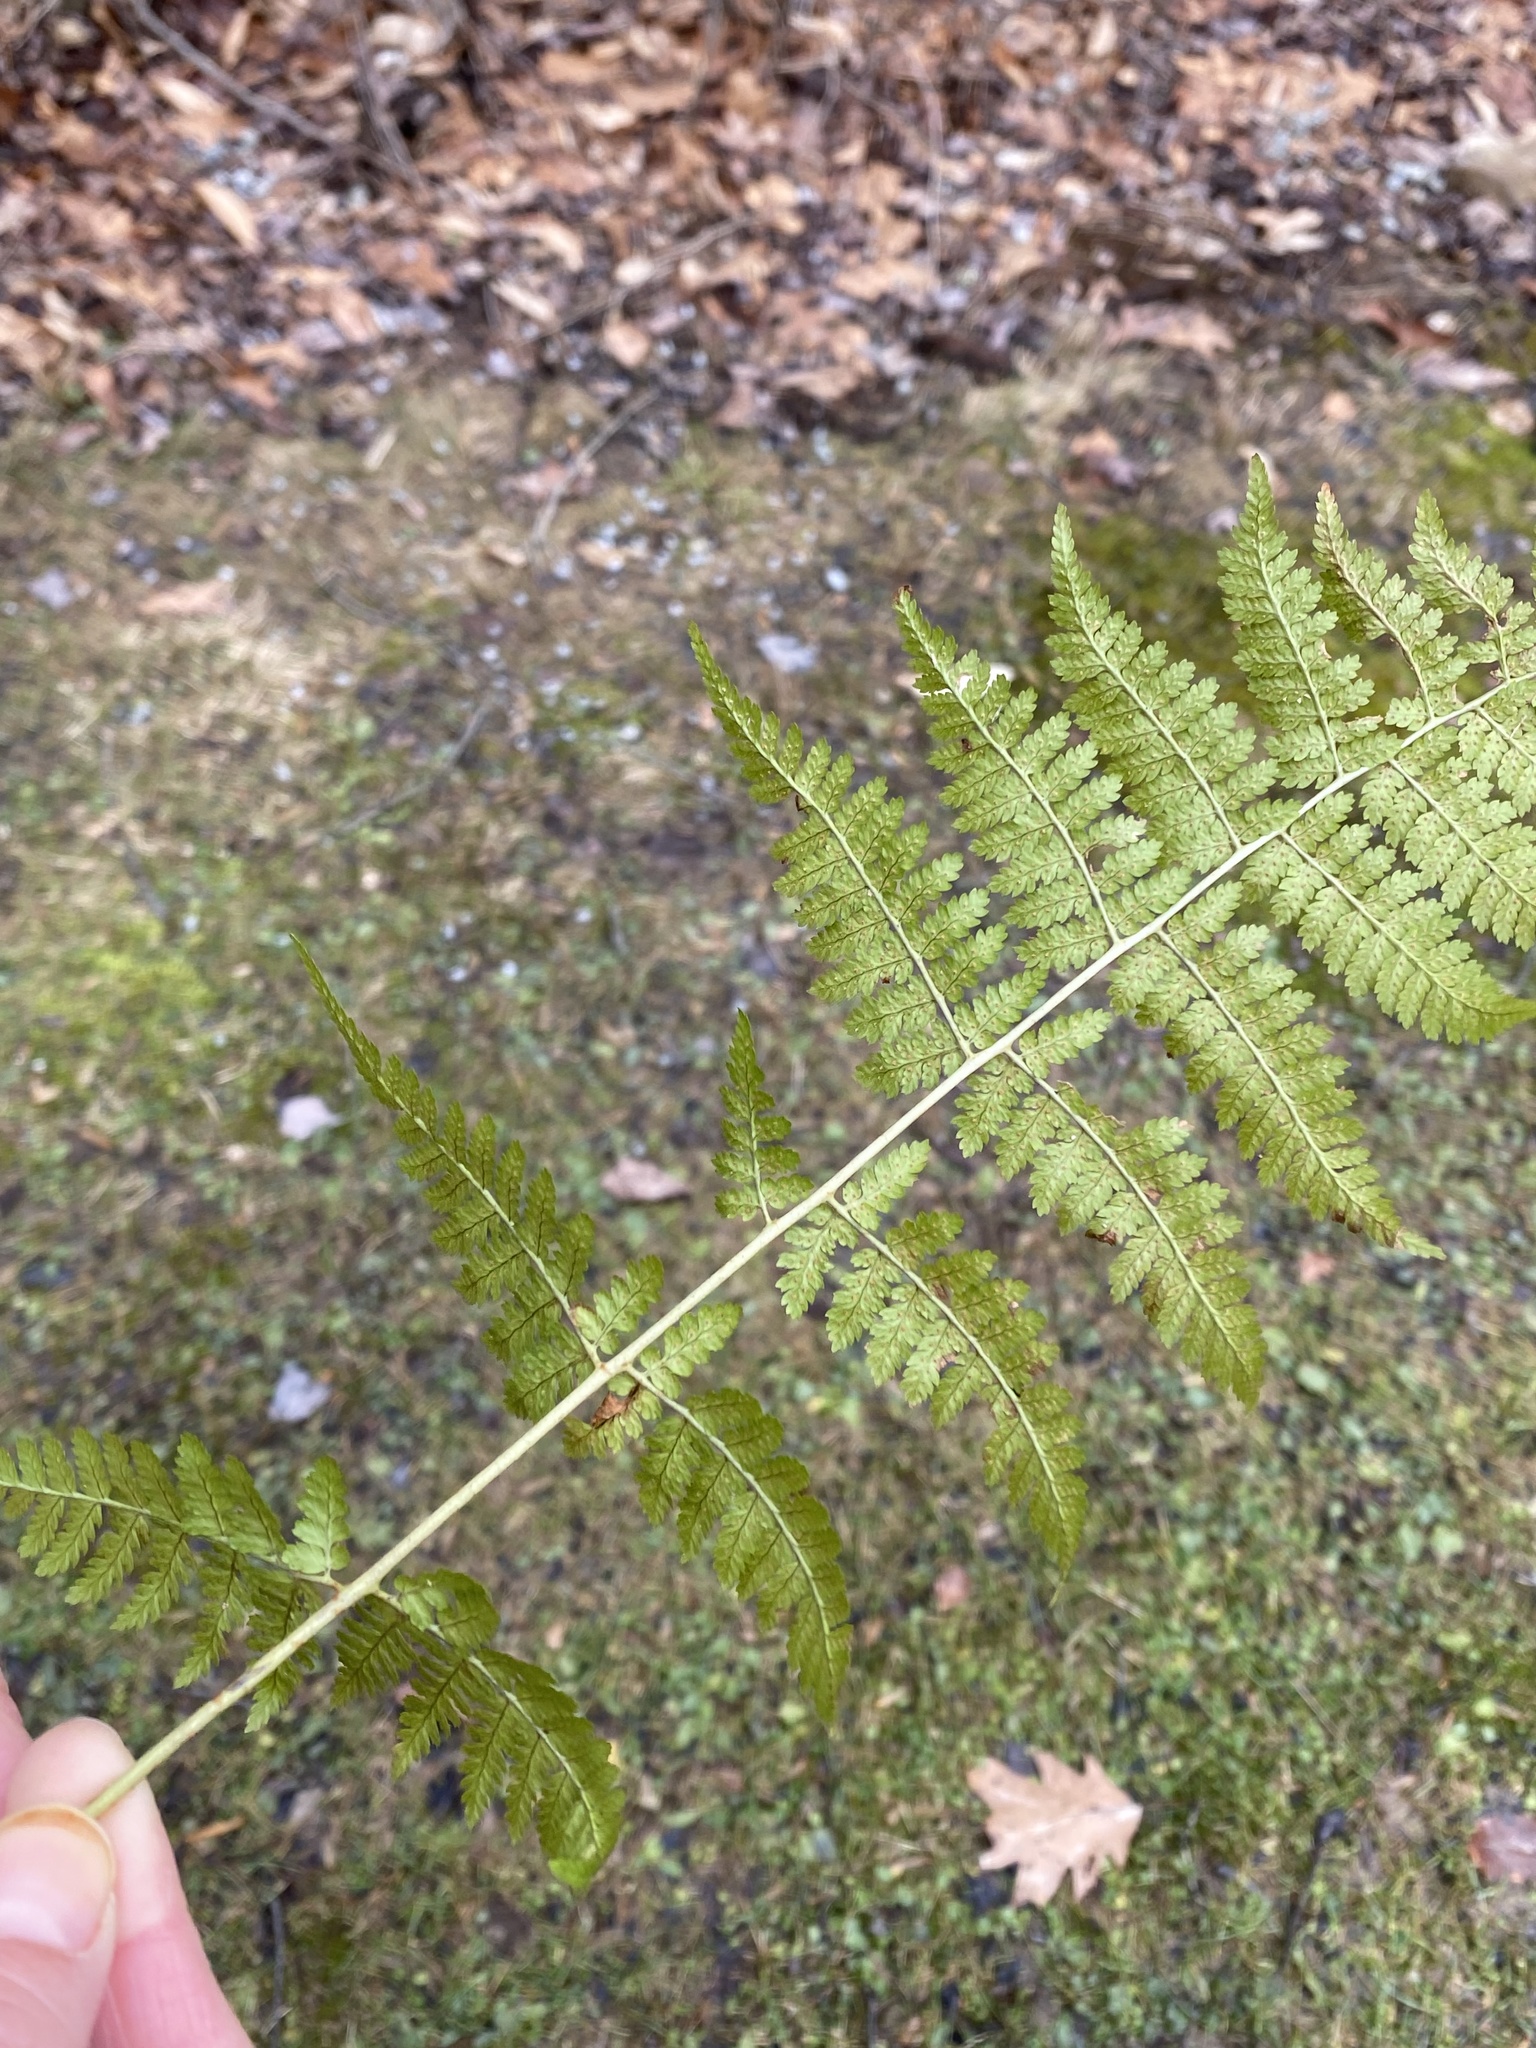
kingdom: Plantae
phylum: Tracheophyta
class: Polypodiopsida
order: Polypodiales
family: Dryopteridaceae
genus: Dryopteris
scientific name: Dryopteris intermedia
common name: Evergreen wood fern
